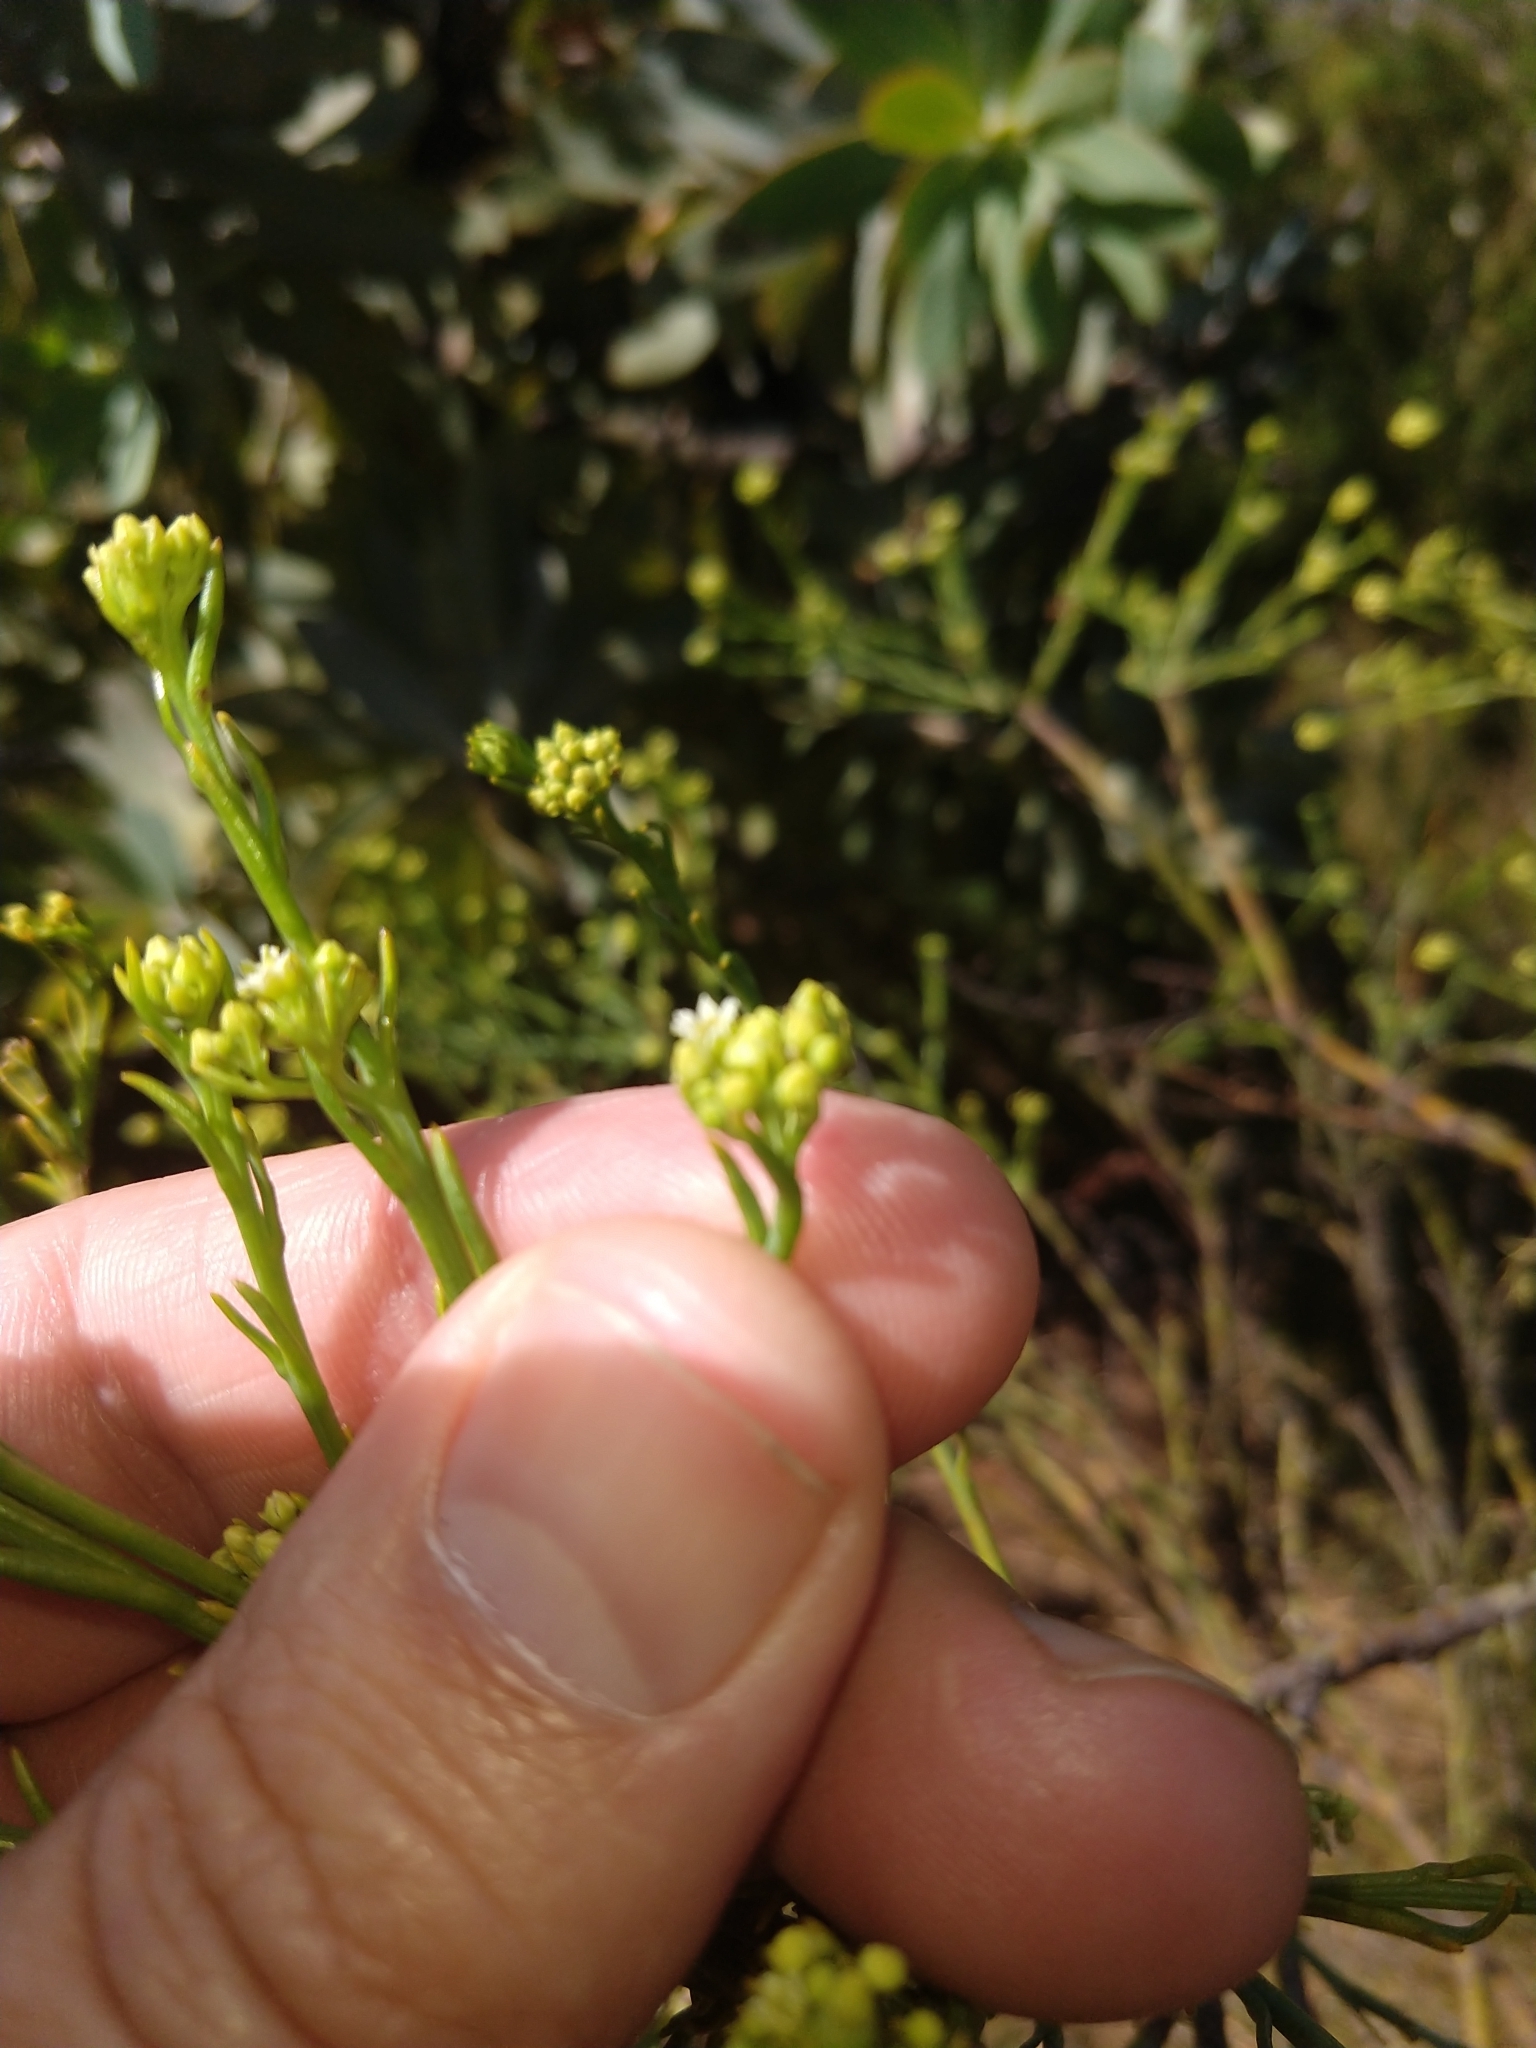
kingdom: Plantae
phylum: Tracheophyta
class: Magnoliopsida
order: Santalales
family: Thesiaceae
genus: Thesium
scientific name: Thesium strictum
